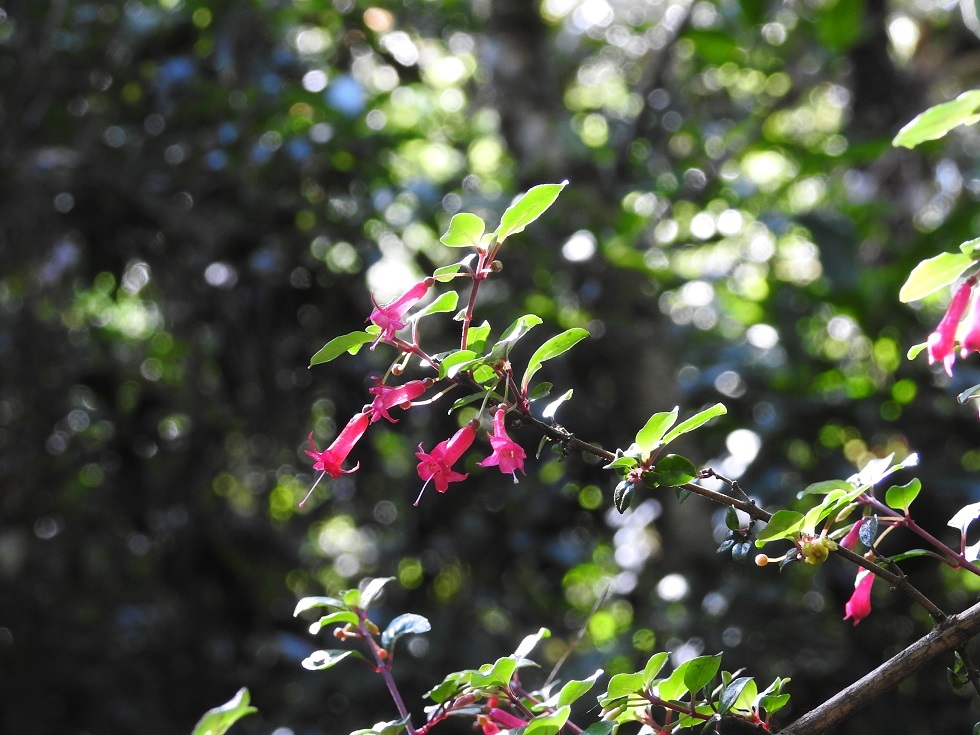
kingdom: Plantae
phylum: Tracheophyta
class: Magnoliopsida
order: Myrtales
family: Onagraceae
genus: Fuchsia
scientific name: Fuchsia microphylla
